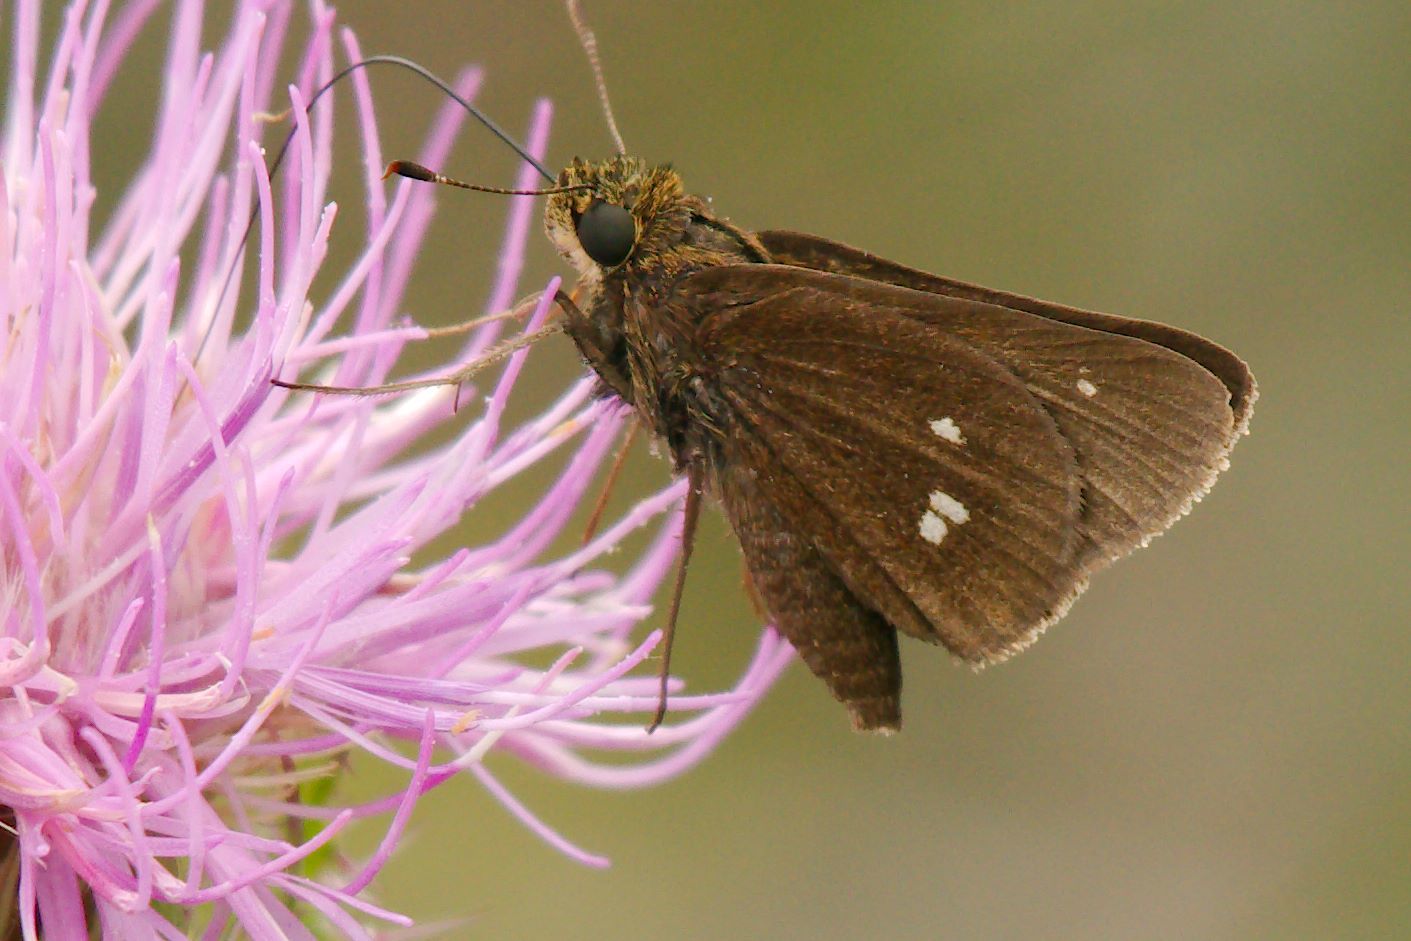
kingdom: Animalia
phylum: Arthropoda
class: Insecta
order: Lepidoptera
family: Hesperiidae
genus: Oligoria
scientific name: Oligoria maculata
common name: Twin-spot skipper
